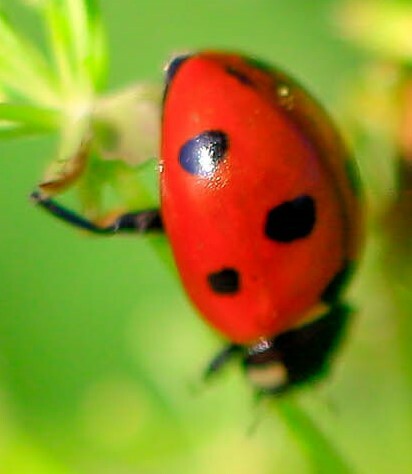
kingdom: Animalia
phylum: Arthropoda
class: Insecta
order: Coleoptera
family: Coccinellidae
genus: Coccinella
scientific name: Coccinella septempunctata
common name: Sevenspotted lady beetle
